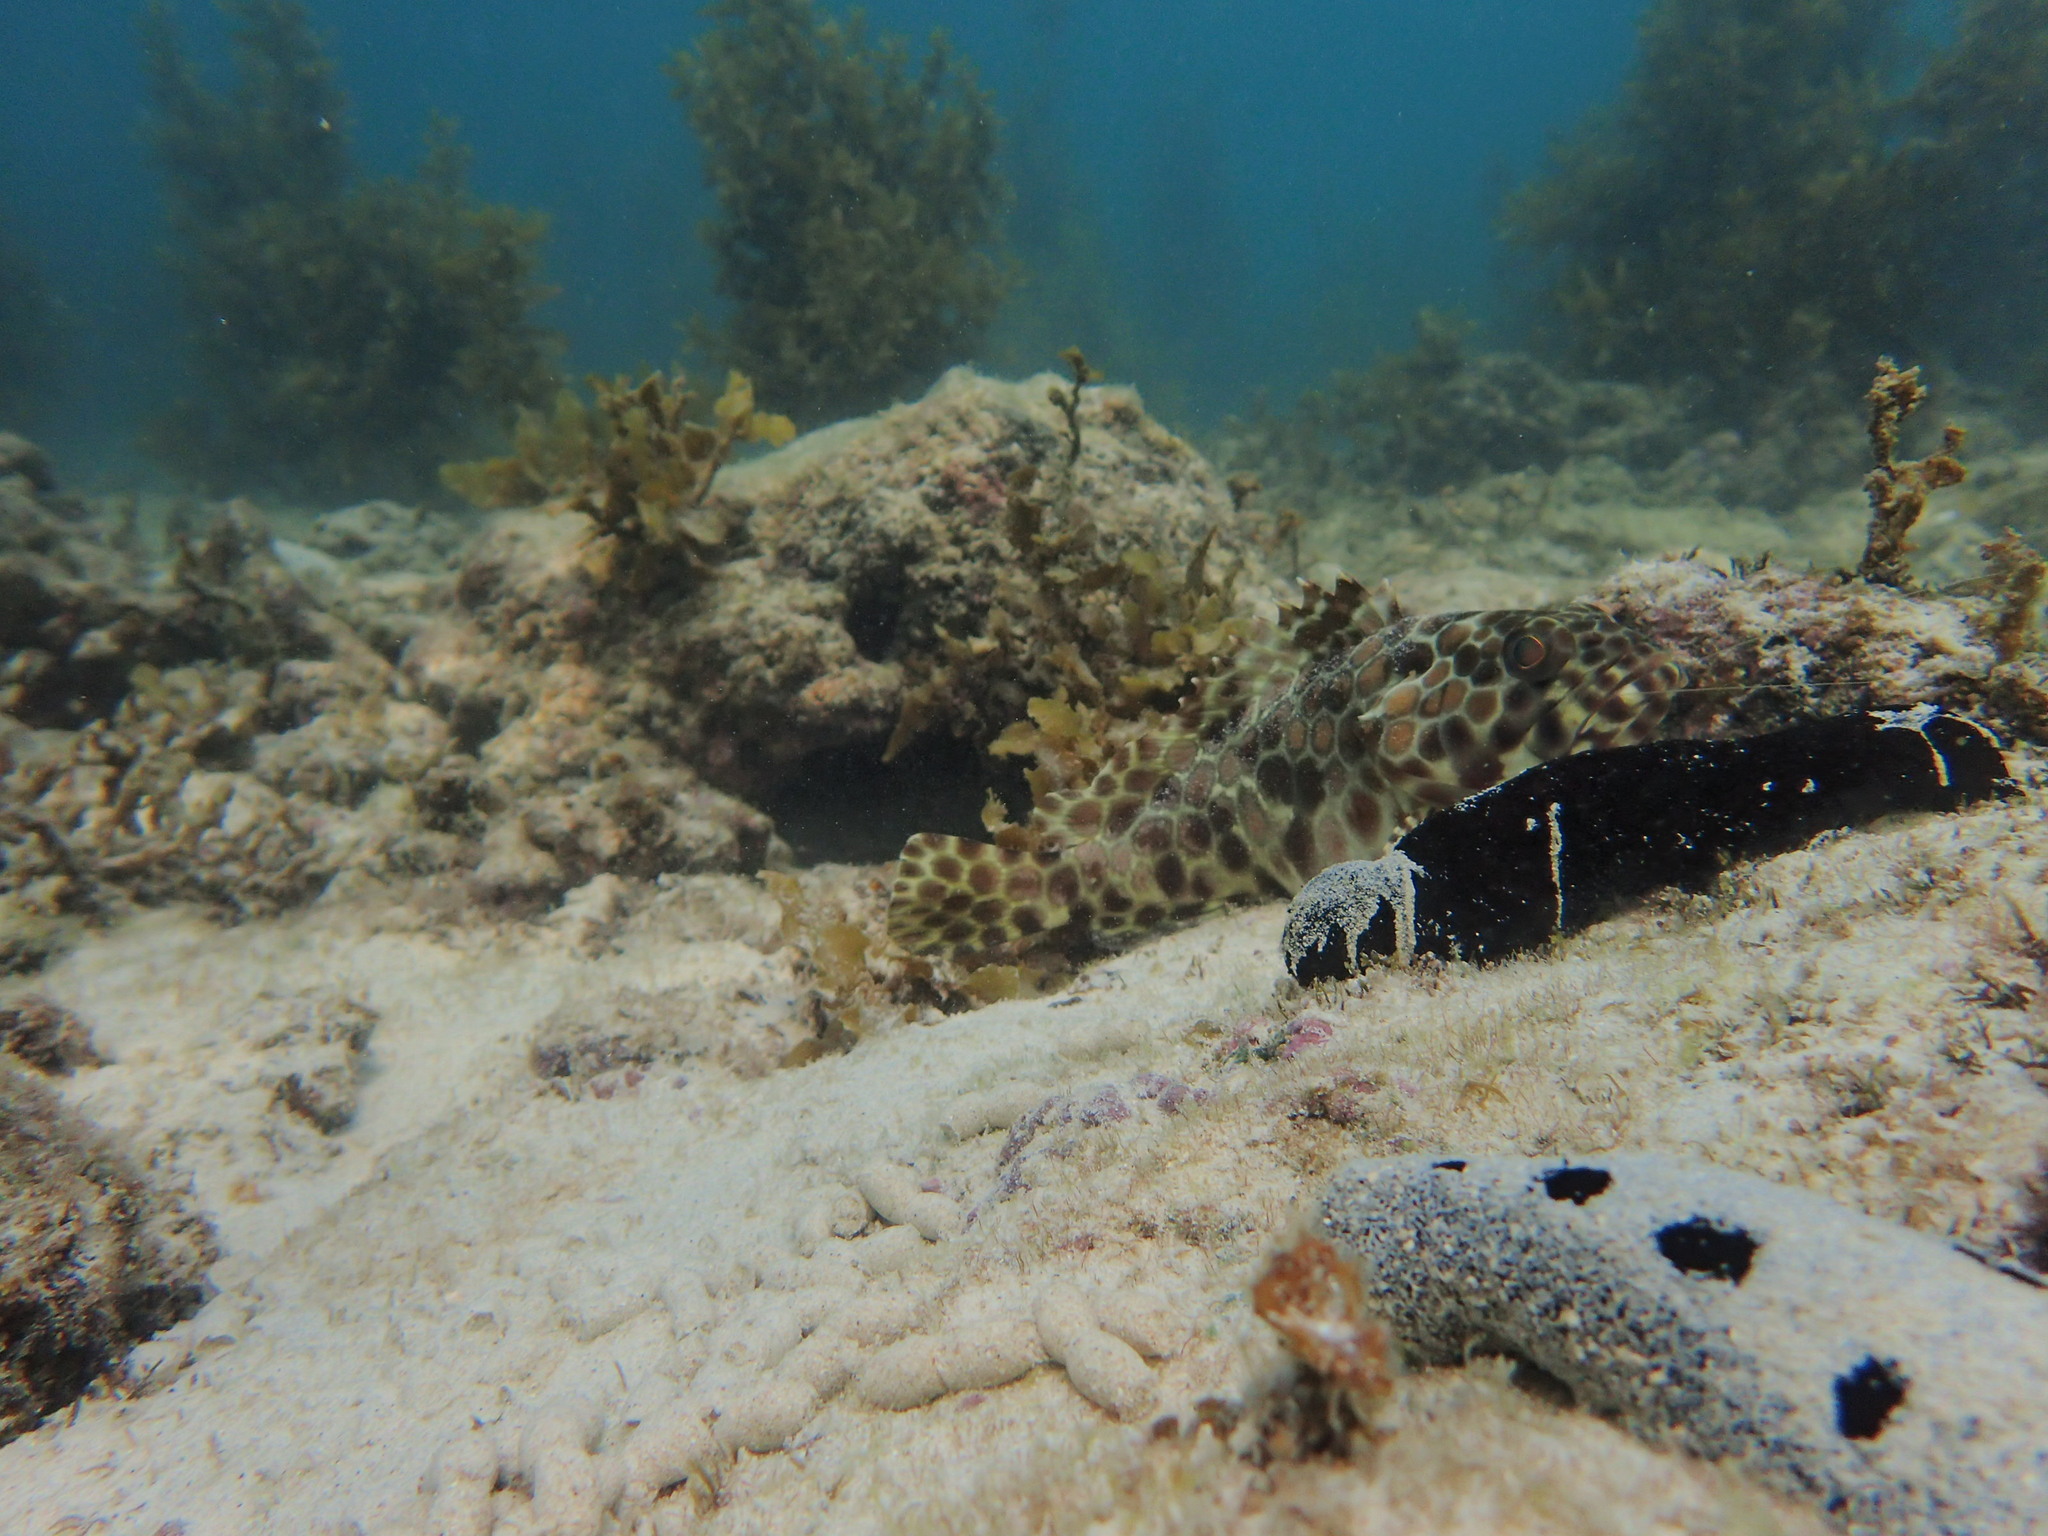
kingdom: Animalia
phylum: Echinodermata
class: Holothuroidea
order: Holothuriida
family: Holothuriidae
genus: Holothuria
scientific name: Holothuria leucospilota
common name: White thread fish
